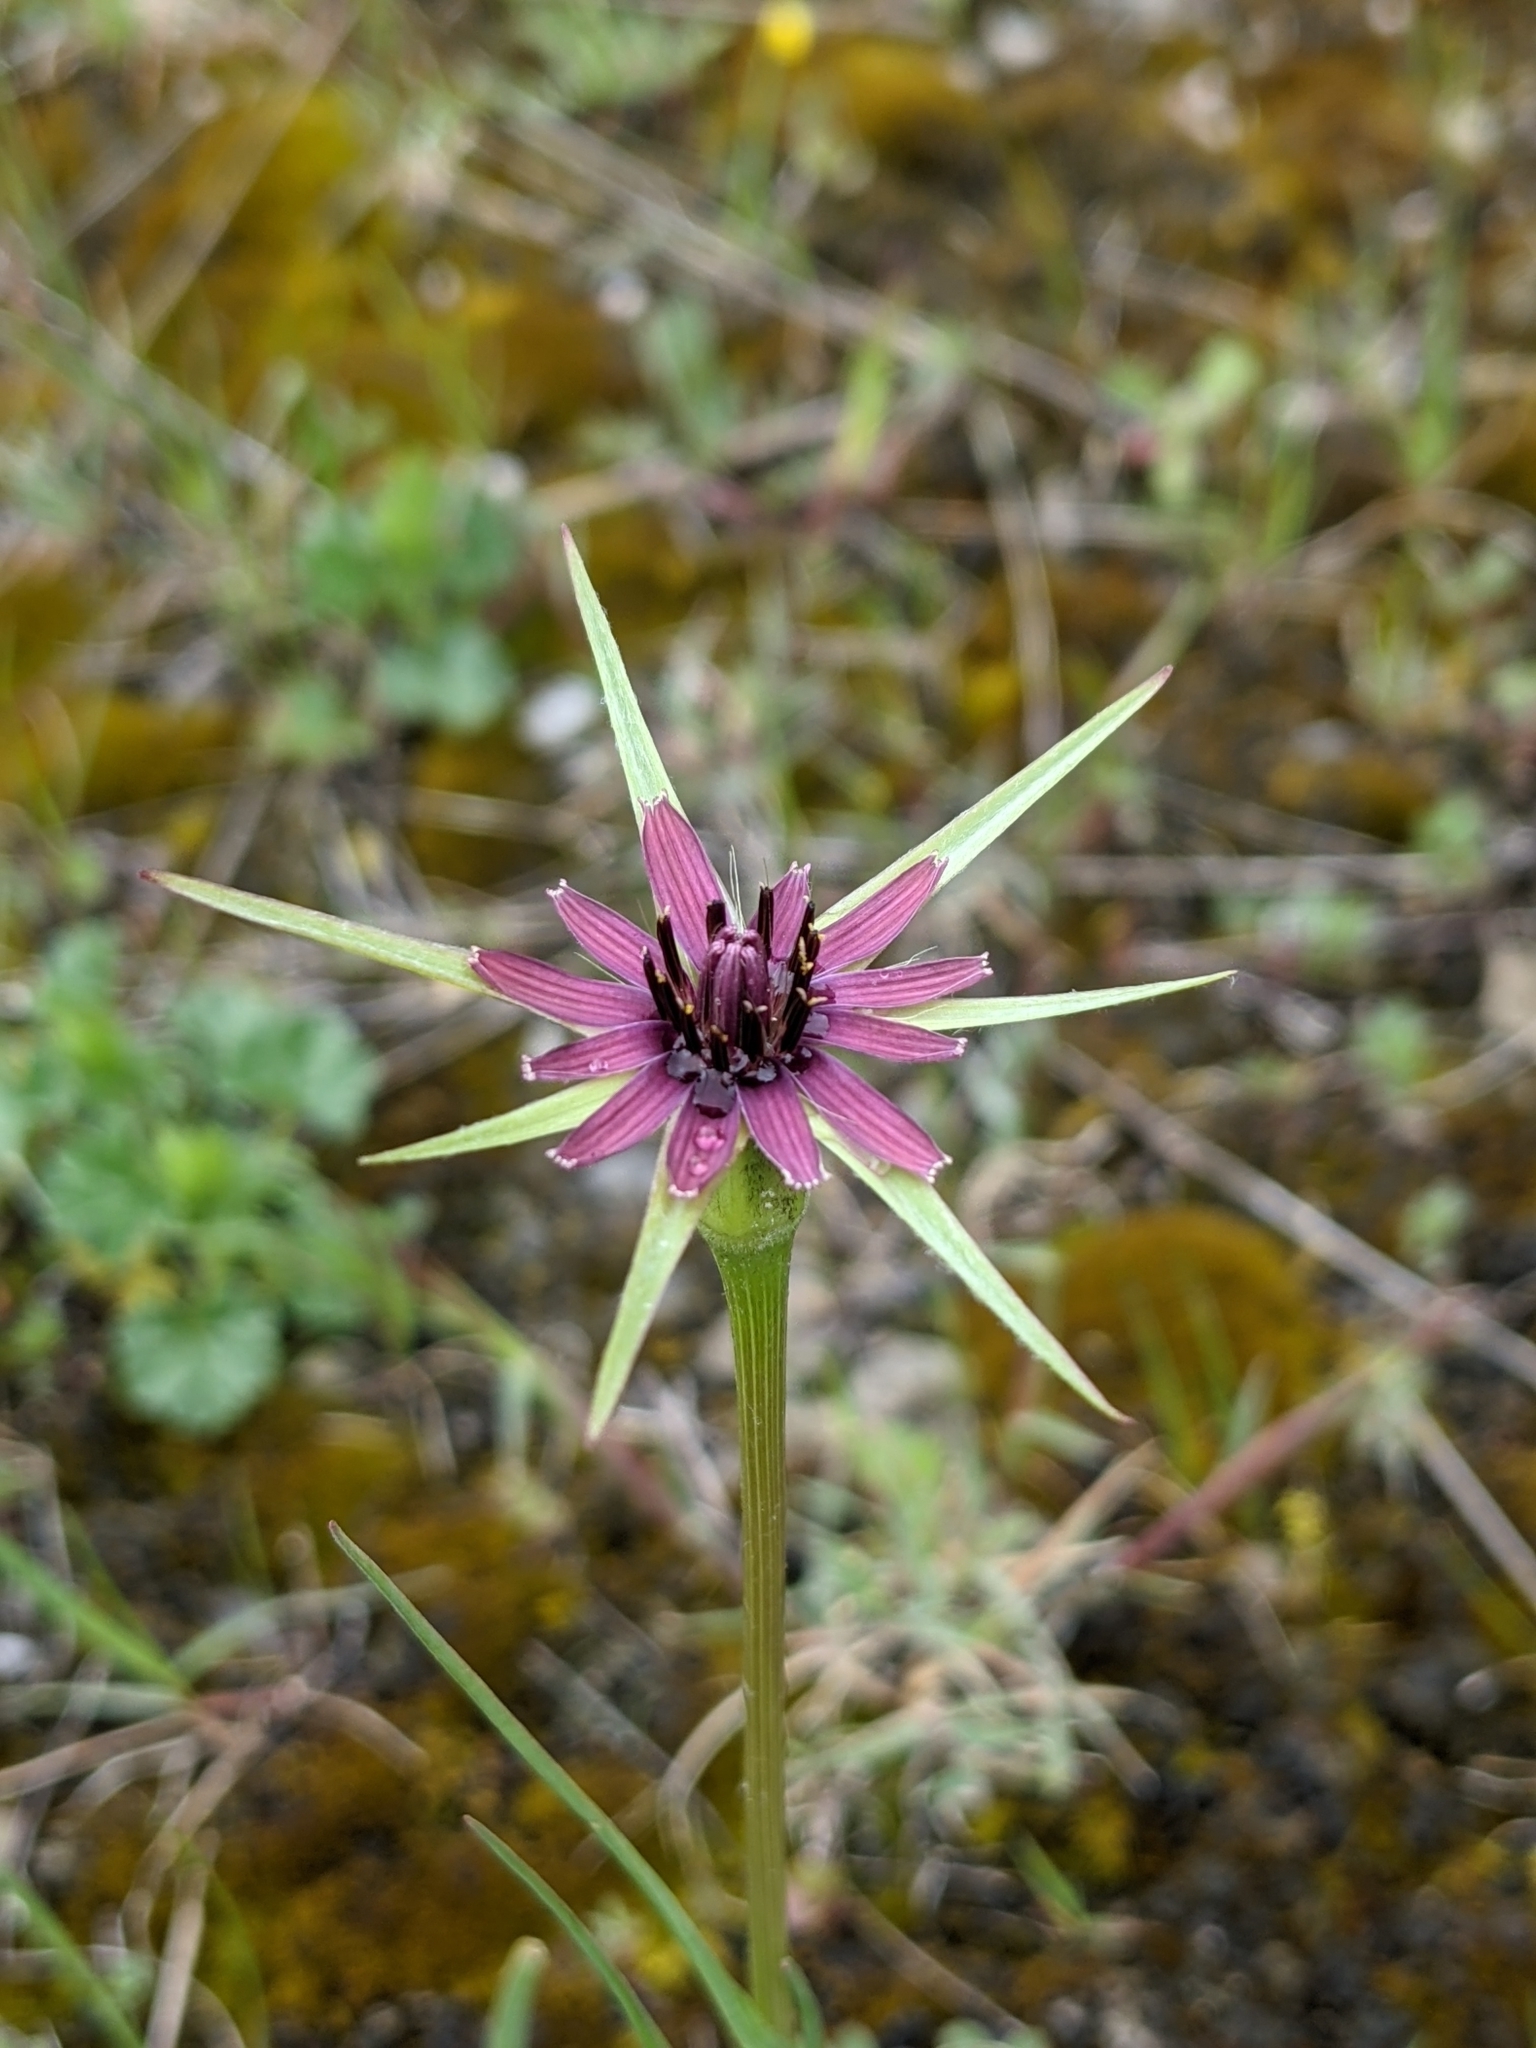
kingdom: Plantae
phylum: Tracheophyta
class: Magnoliopsida
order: Asterales
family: Asteraceae
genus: Tragopogon
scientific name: Tragopogon porrifolius
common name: Salsify
